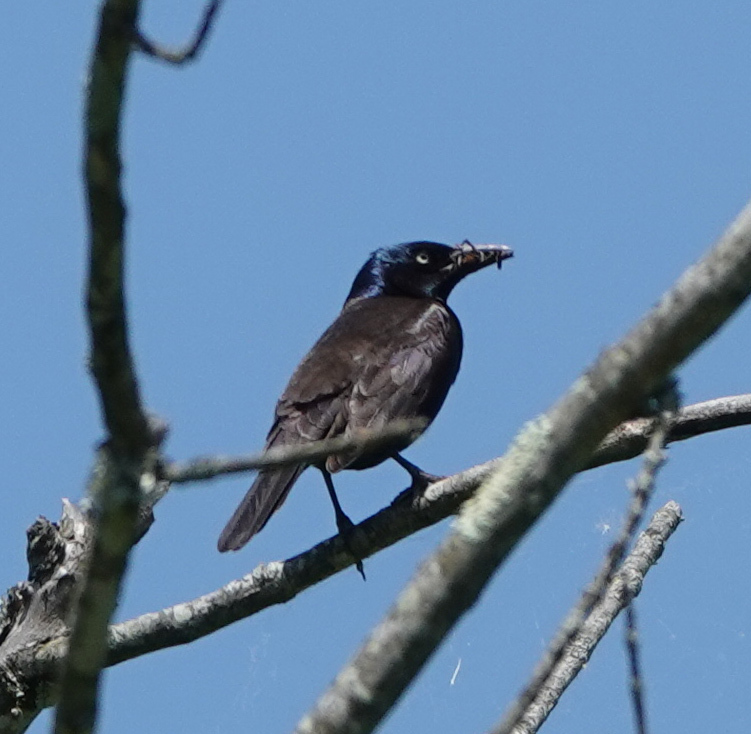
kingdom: Animalia
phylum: Chordata
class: Aves
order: Passeriformes
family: Icteridae
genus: Quiscalus
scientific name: Quiscalus quiscula
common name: Common grackle
